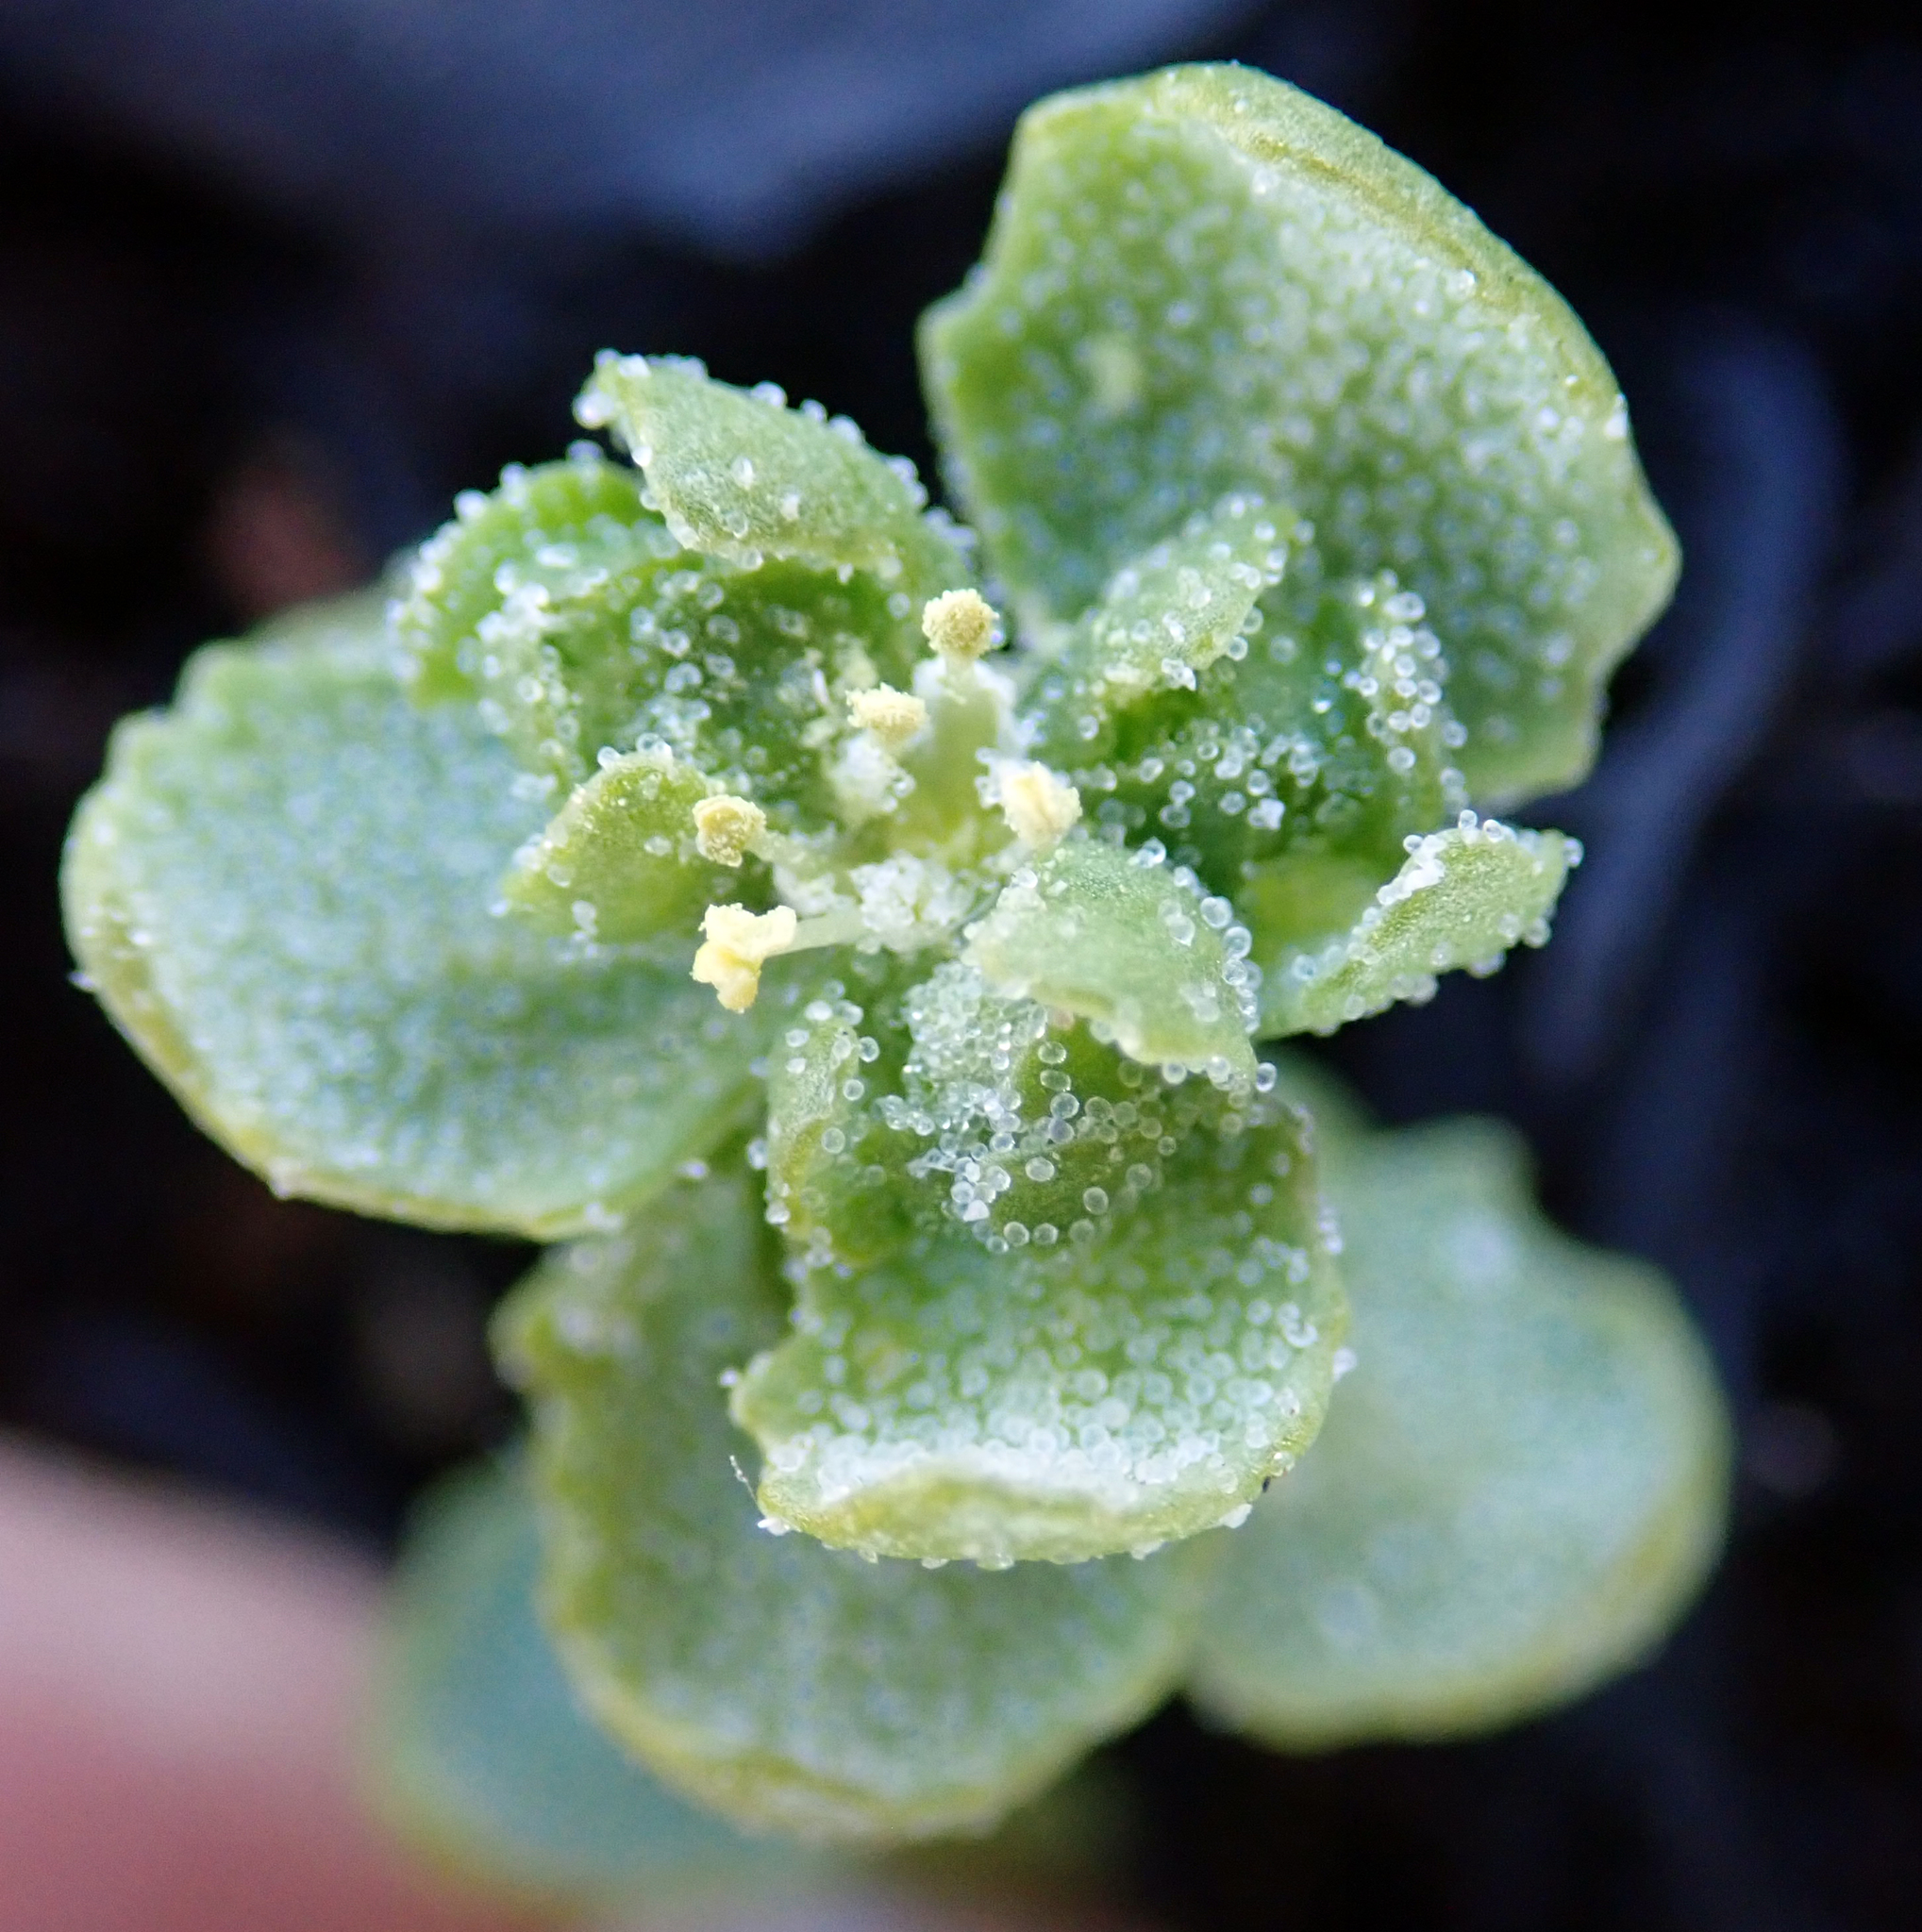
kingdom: Plantae
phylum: Tracheophyta
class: Magnoliopsida
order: Caryophyllales
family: Amaranthaceae
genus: Atriplex
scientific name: Atriplex billardierei
